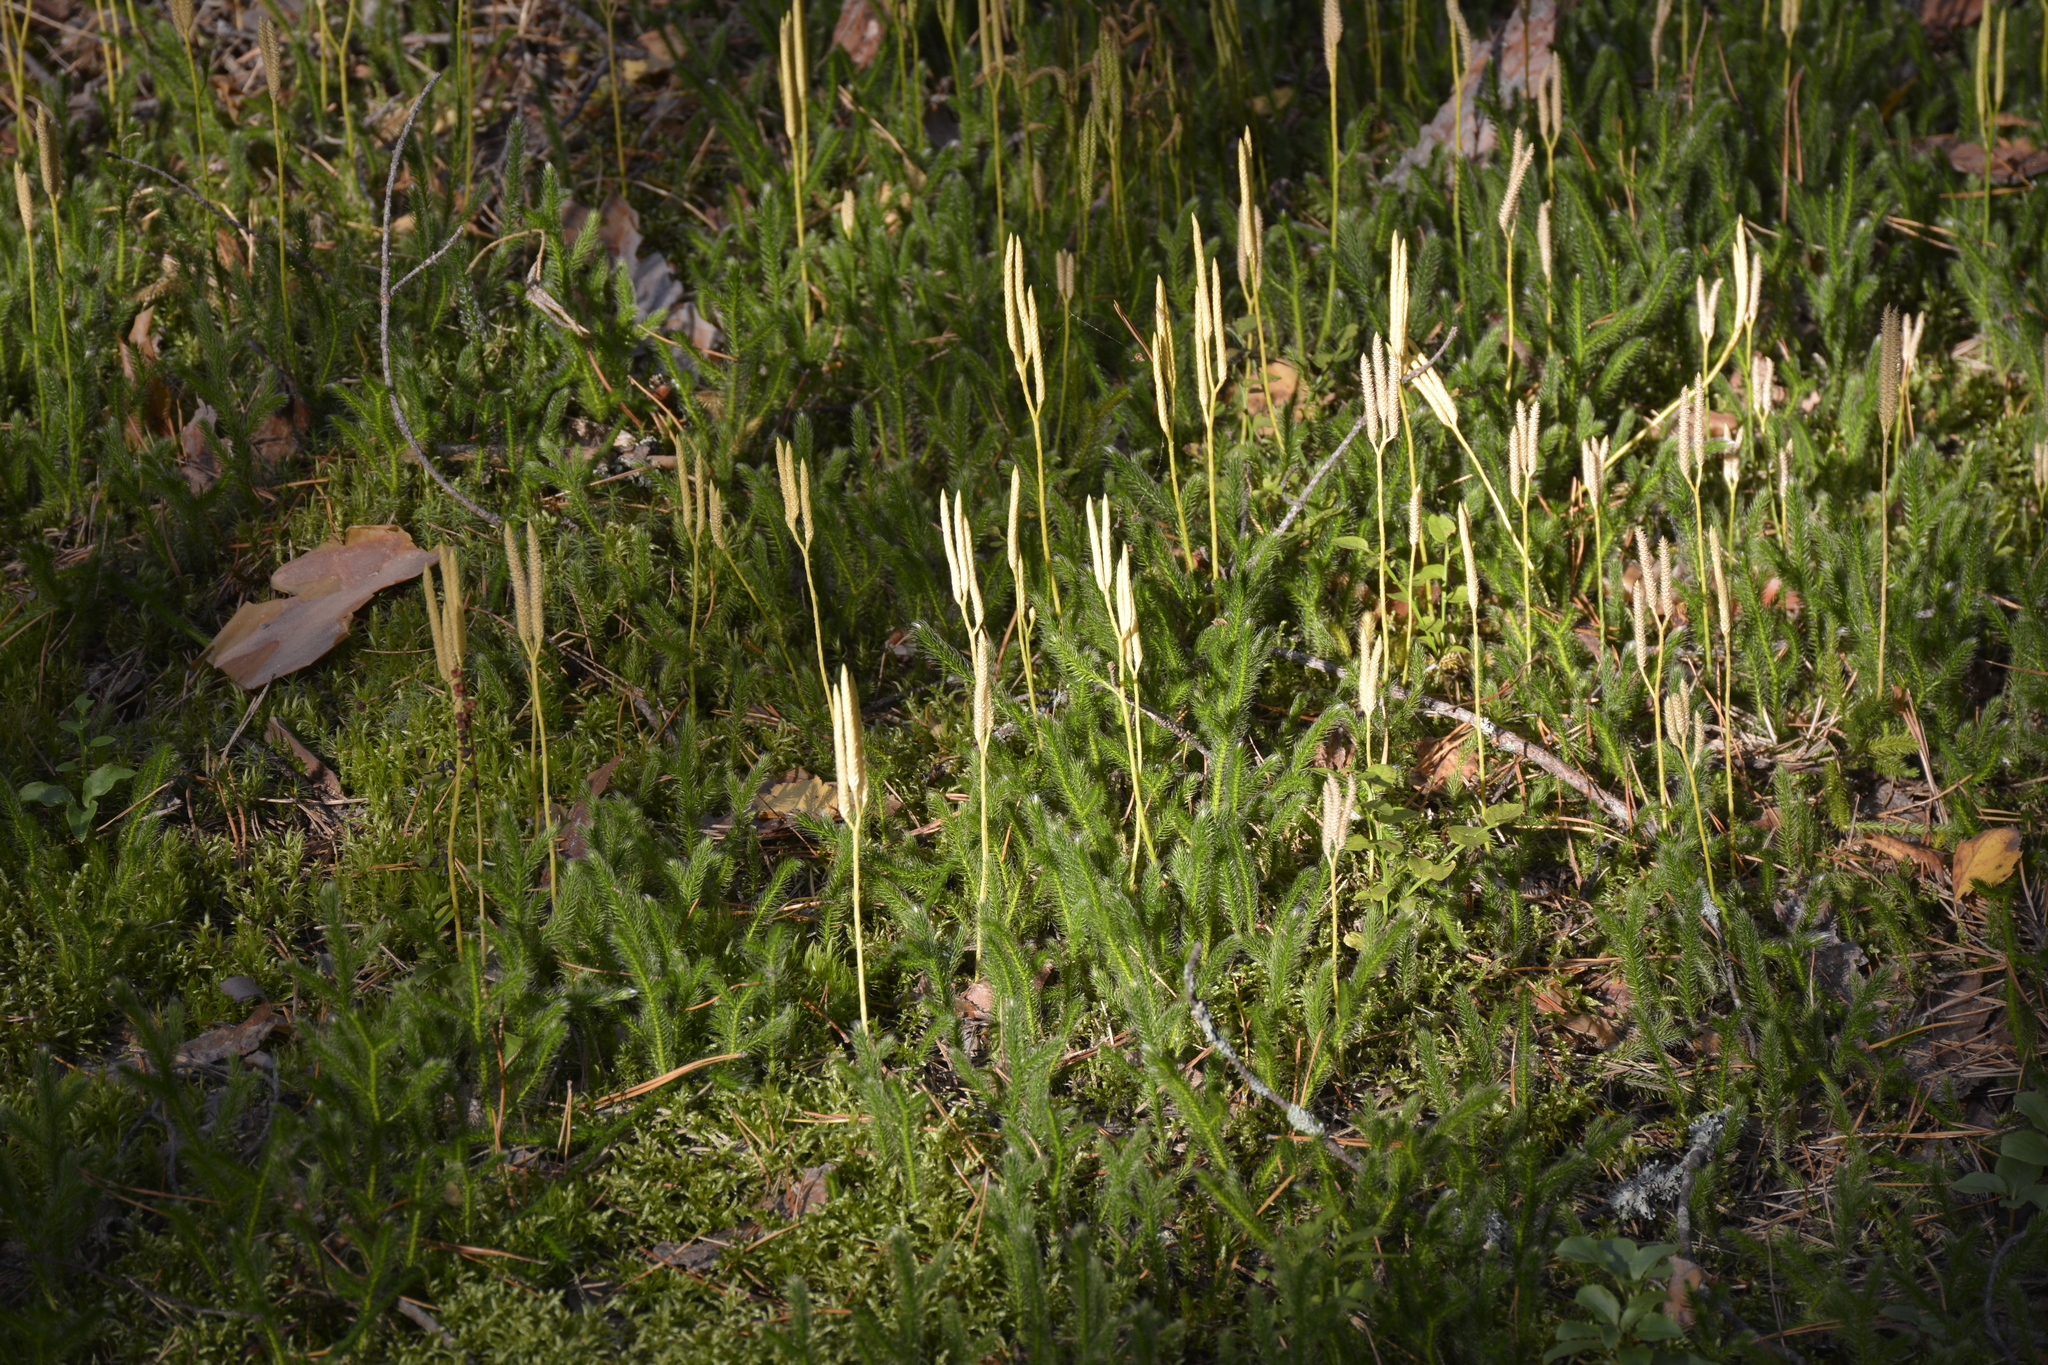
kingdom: Plantae
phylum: Tracheophyta
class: Lycopodiopsida
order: Lycopodiales
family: Lycopodiaceae
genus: Lycopodium
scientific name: Lycopodium clavatum
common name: Stag's-horn clubmoss
